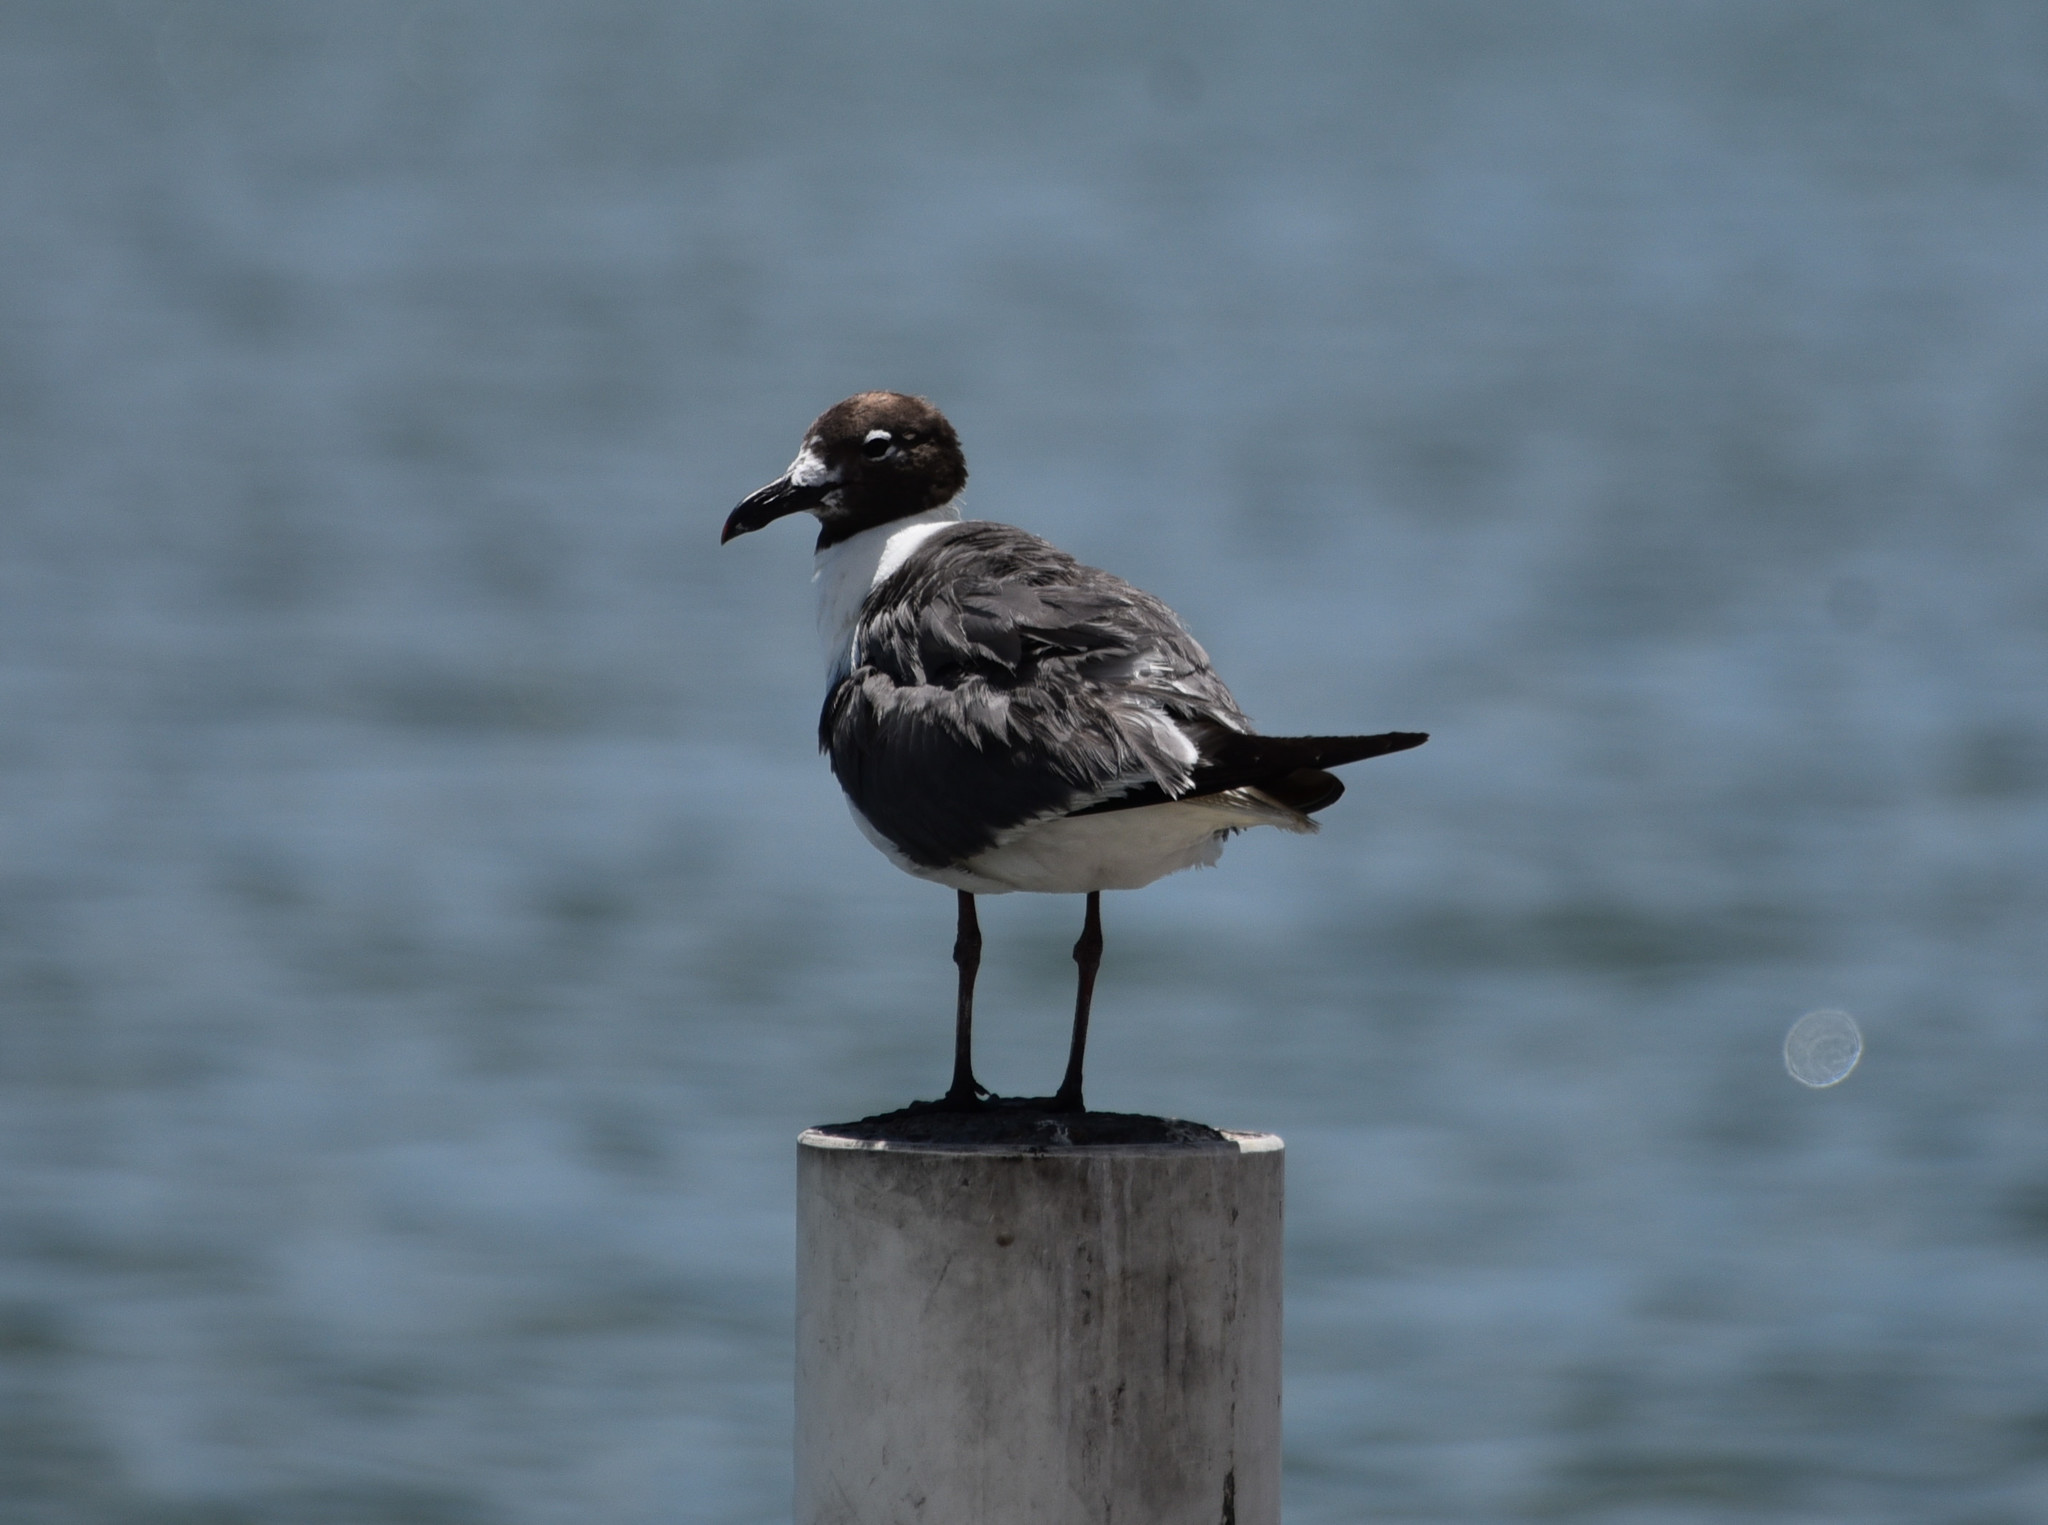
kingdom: Animalia
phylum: Chordata
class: Aves
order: Charadriiformes
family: Laridae
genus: Leucophaeus
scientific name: Leucophaeus atricilla
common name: Laughing gull
